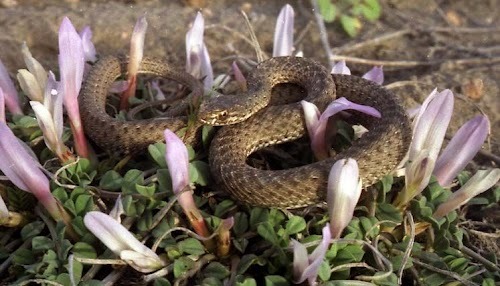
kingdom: Animalia
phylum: Chordata
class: Squamata
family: Psammophiidae
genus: Malpolon
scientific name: Malpolon insignitus
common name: Eastern montpellier snake
